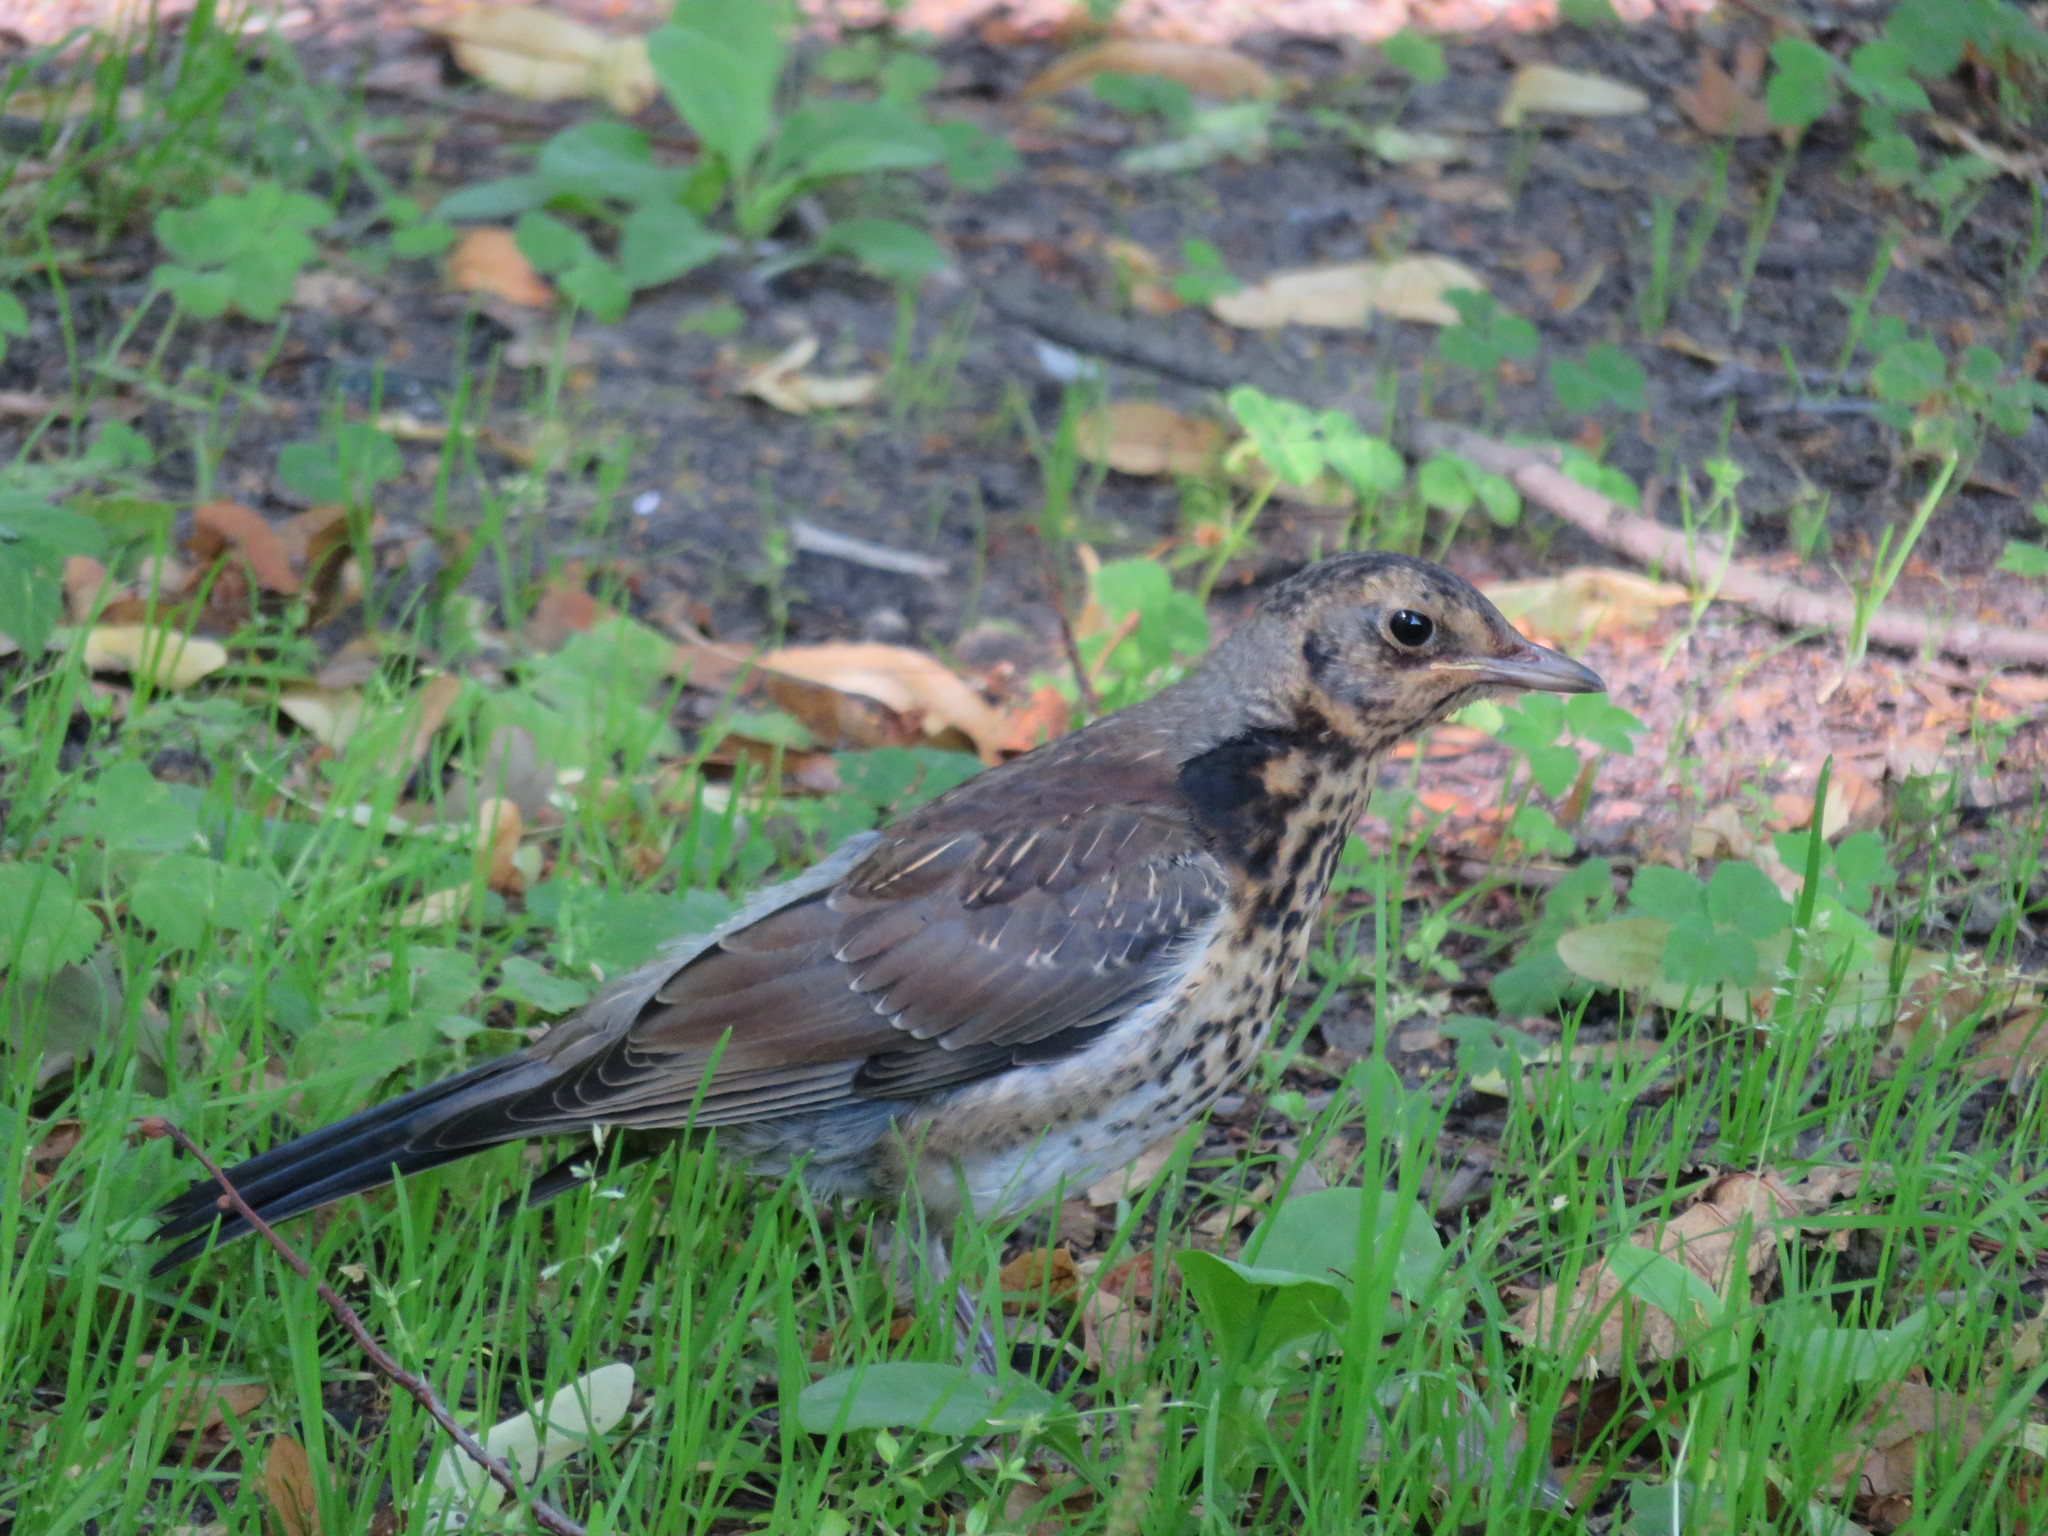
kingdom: Animalia
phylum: Chordata
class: Aves
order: Passeriformes
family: Turdidae
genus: Turdus
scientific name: Turdus pilaris
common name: Fieldfare
